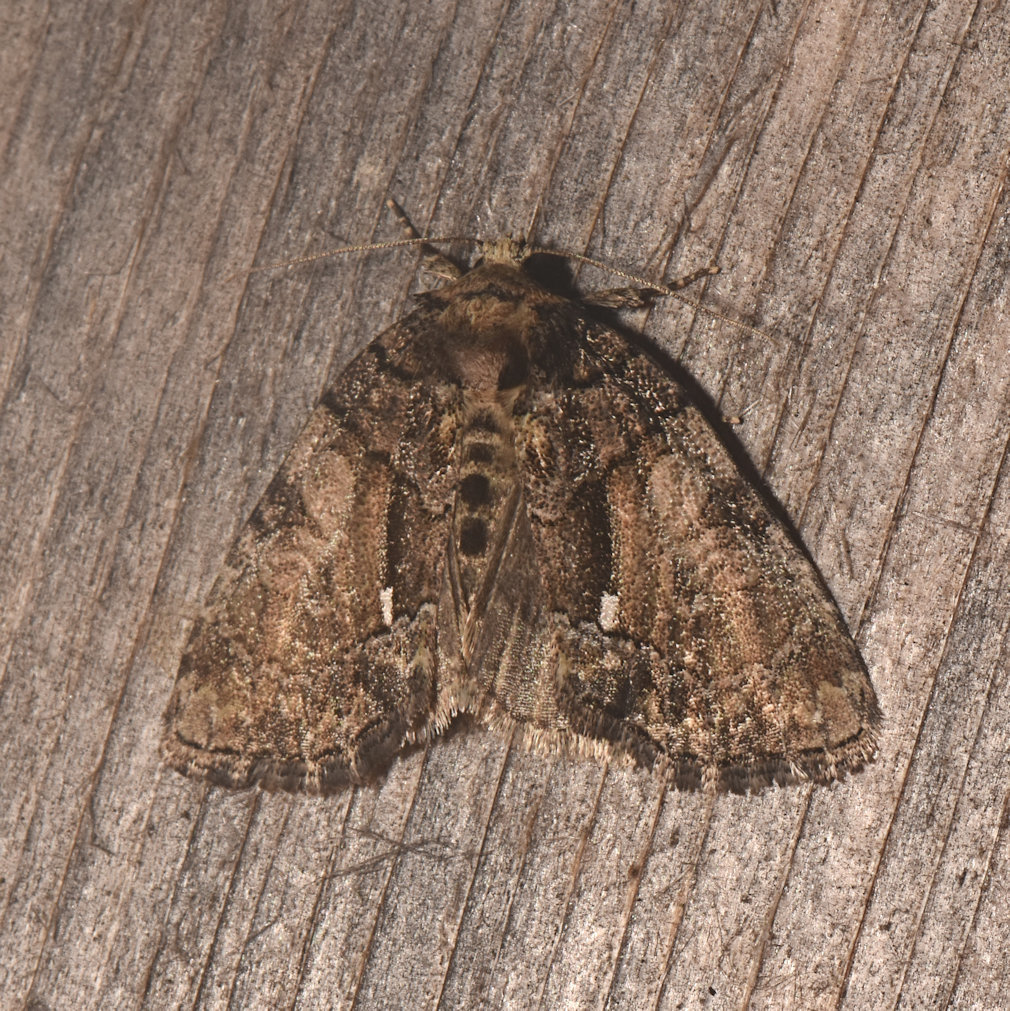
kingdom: Animalia
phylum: Arthropoda
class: Insecta
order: Lepidoptera
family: Noctuidae
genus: Chytonix
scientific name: Chytonix palliatricula
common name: Cloaked marvel
